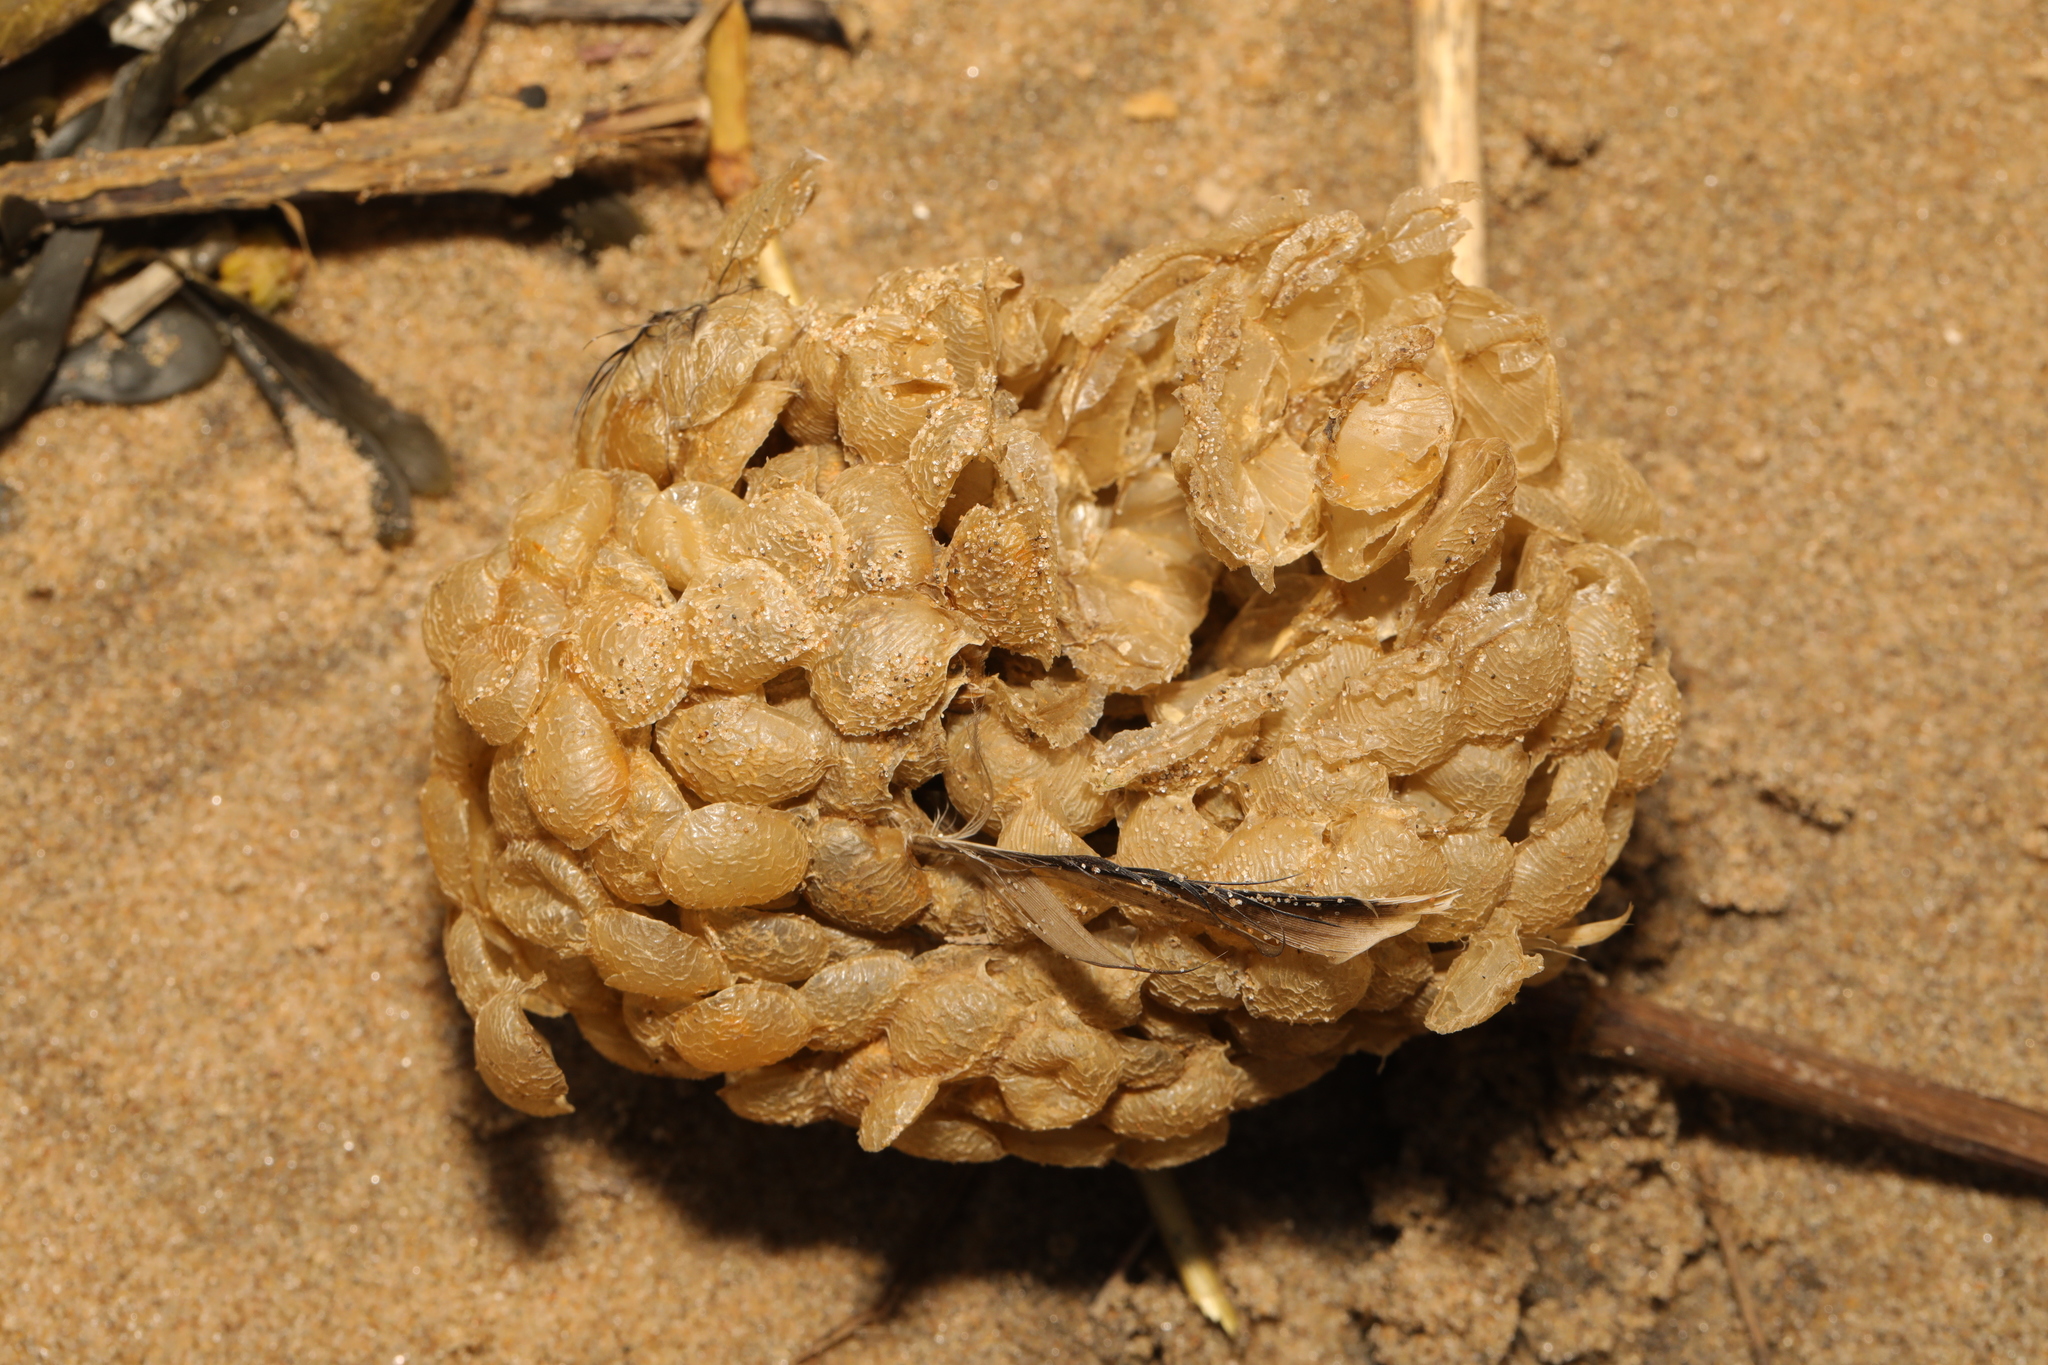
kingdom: Animalia
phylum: Mollusca
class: Gastropoda
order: Neogastropoda
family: Buccinidae
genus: Buccinum
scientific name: Buccinum undatum
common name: Common whelk
